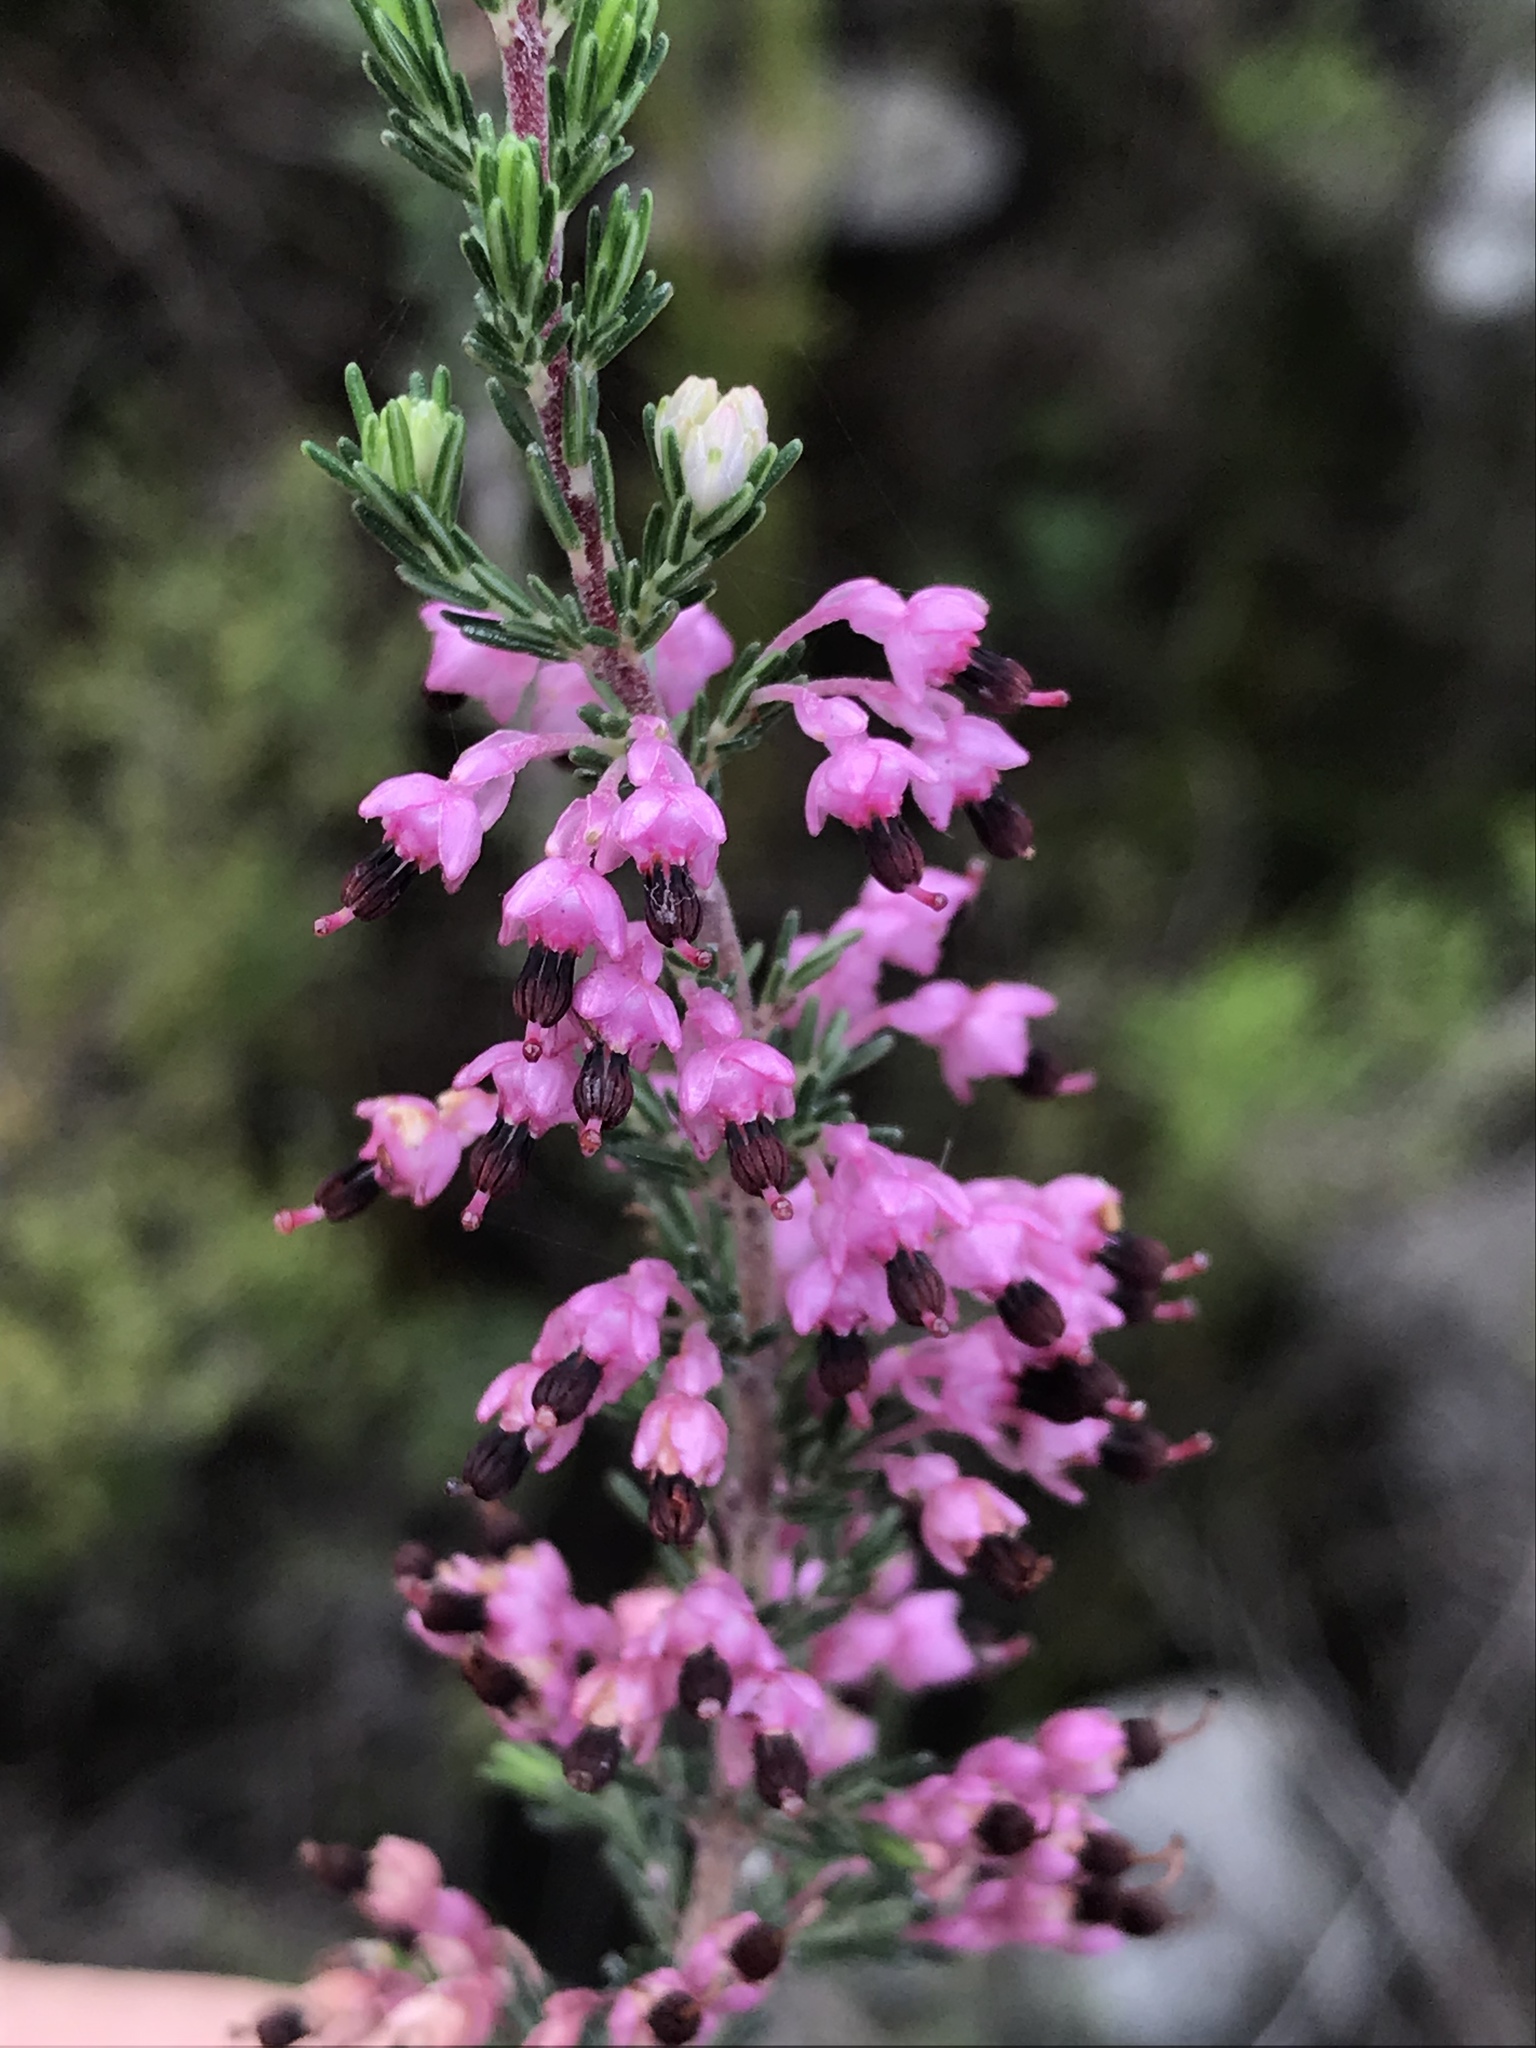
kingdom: Plantae
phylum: Tracheophyta
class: Magnoliopsida
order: Ericales
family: Ericaceae
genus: Erica
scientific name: Erica placentiflora
